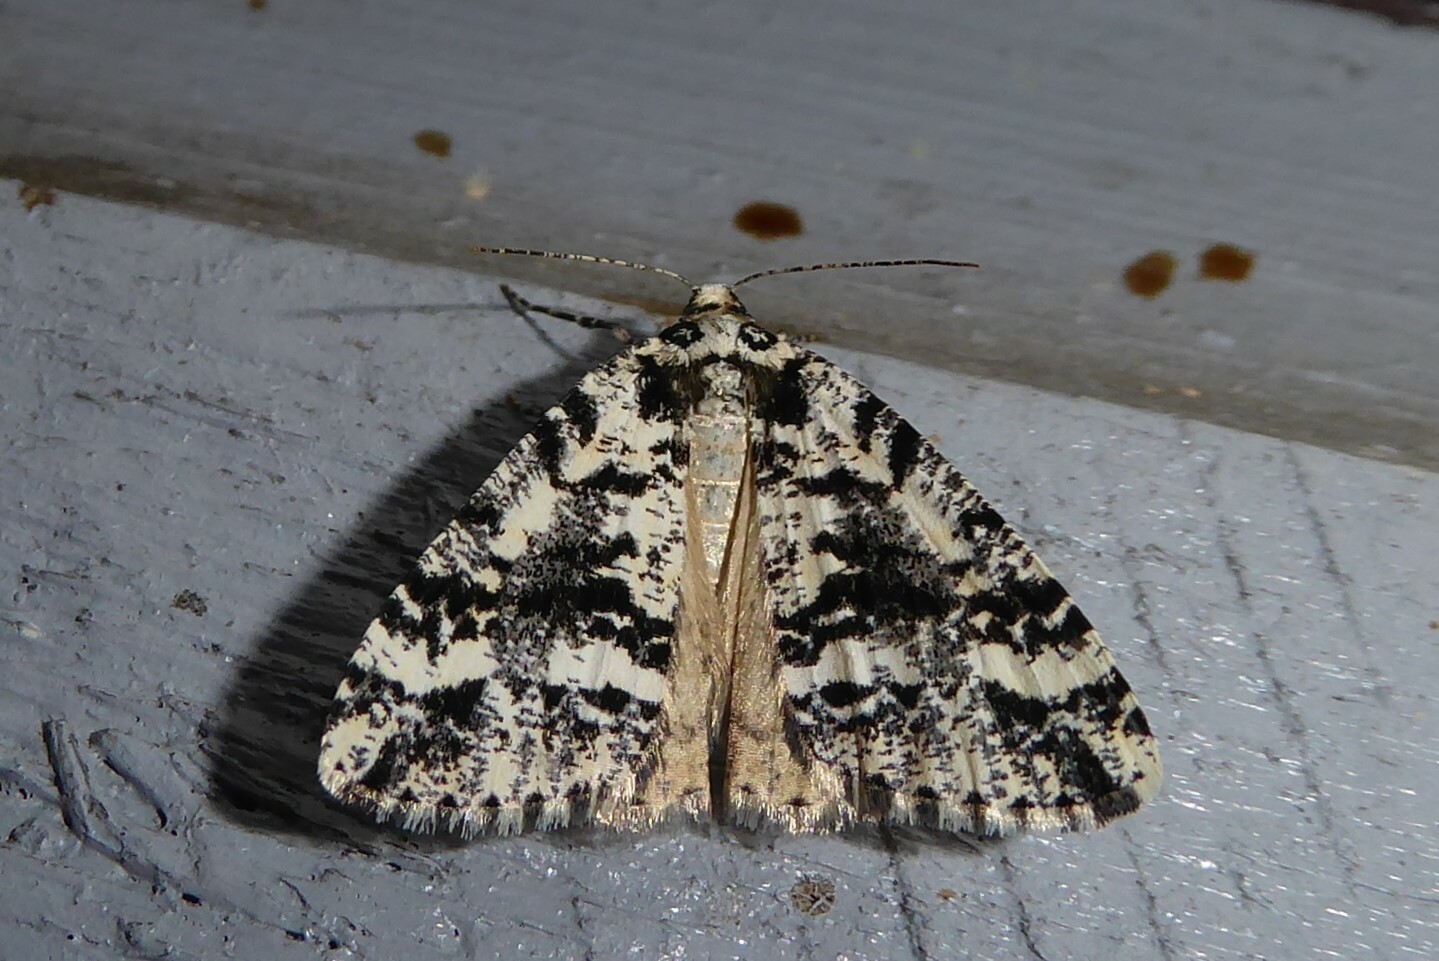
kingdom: Animalia
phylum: Arthropoda
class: Insecta
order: Lepidoptera
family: Geometridae
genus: Pseudocoremia
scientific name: Pseudocoremia leucelaea
